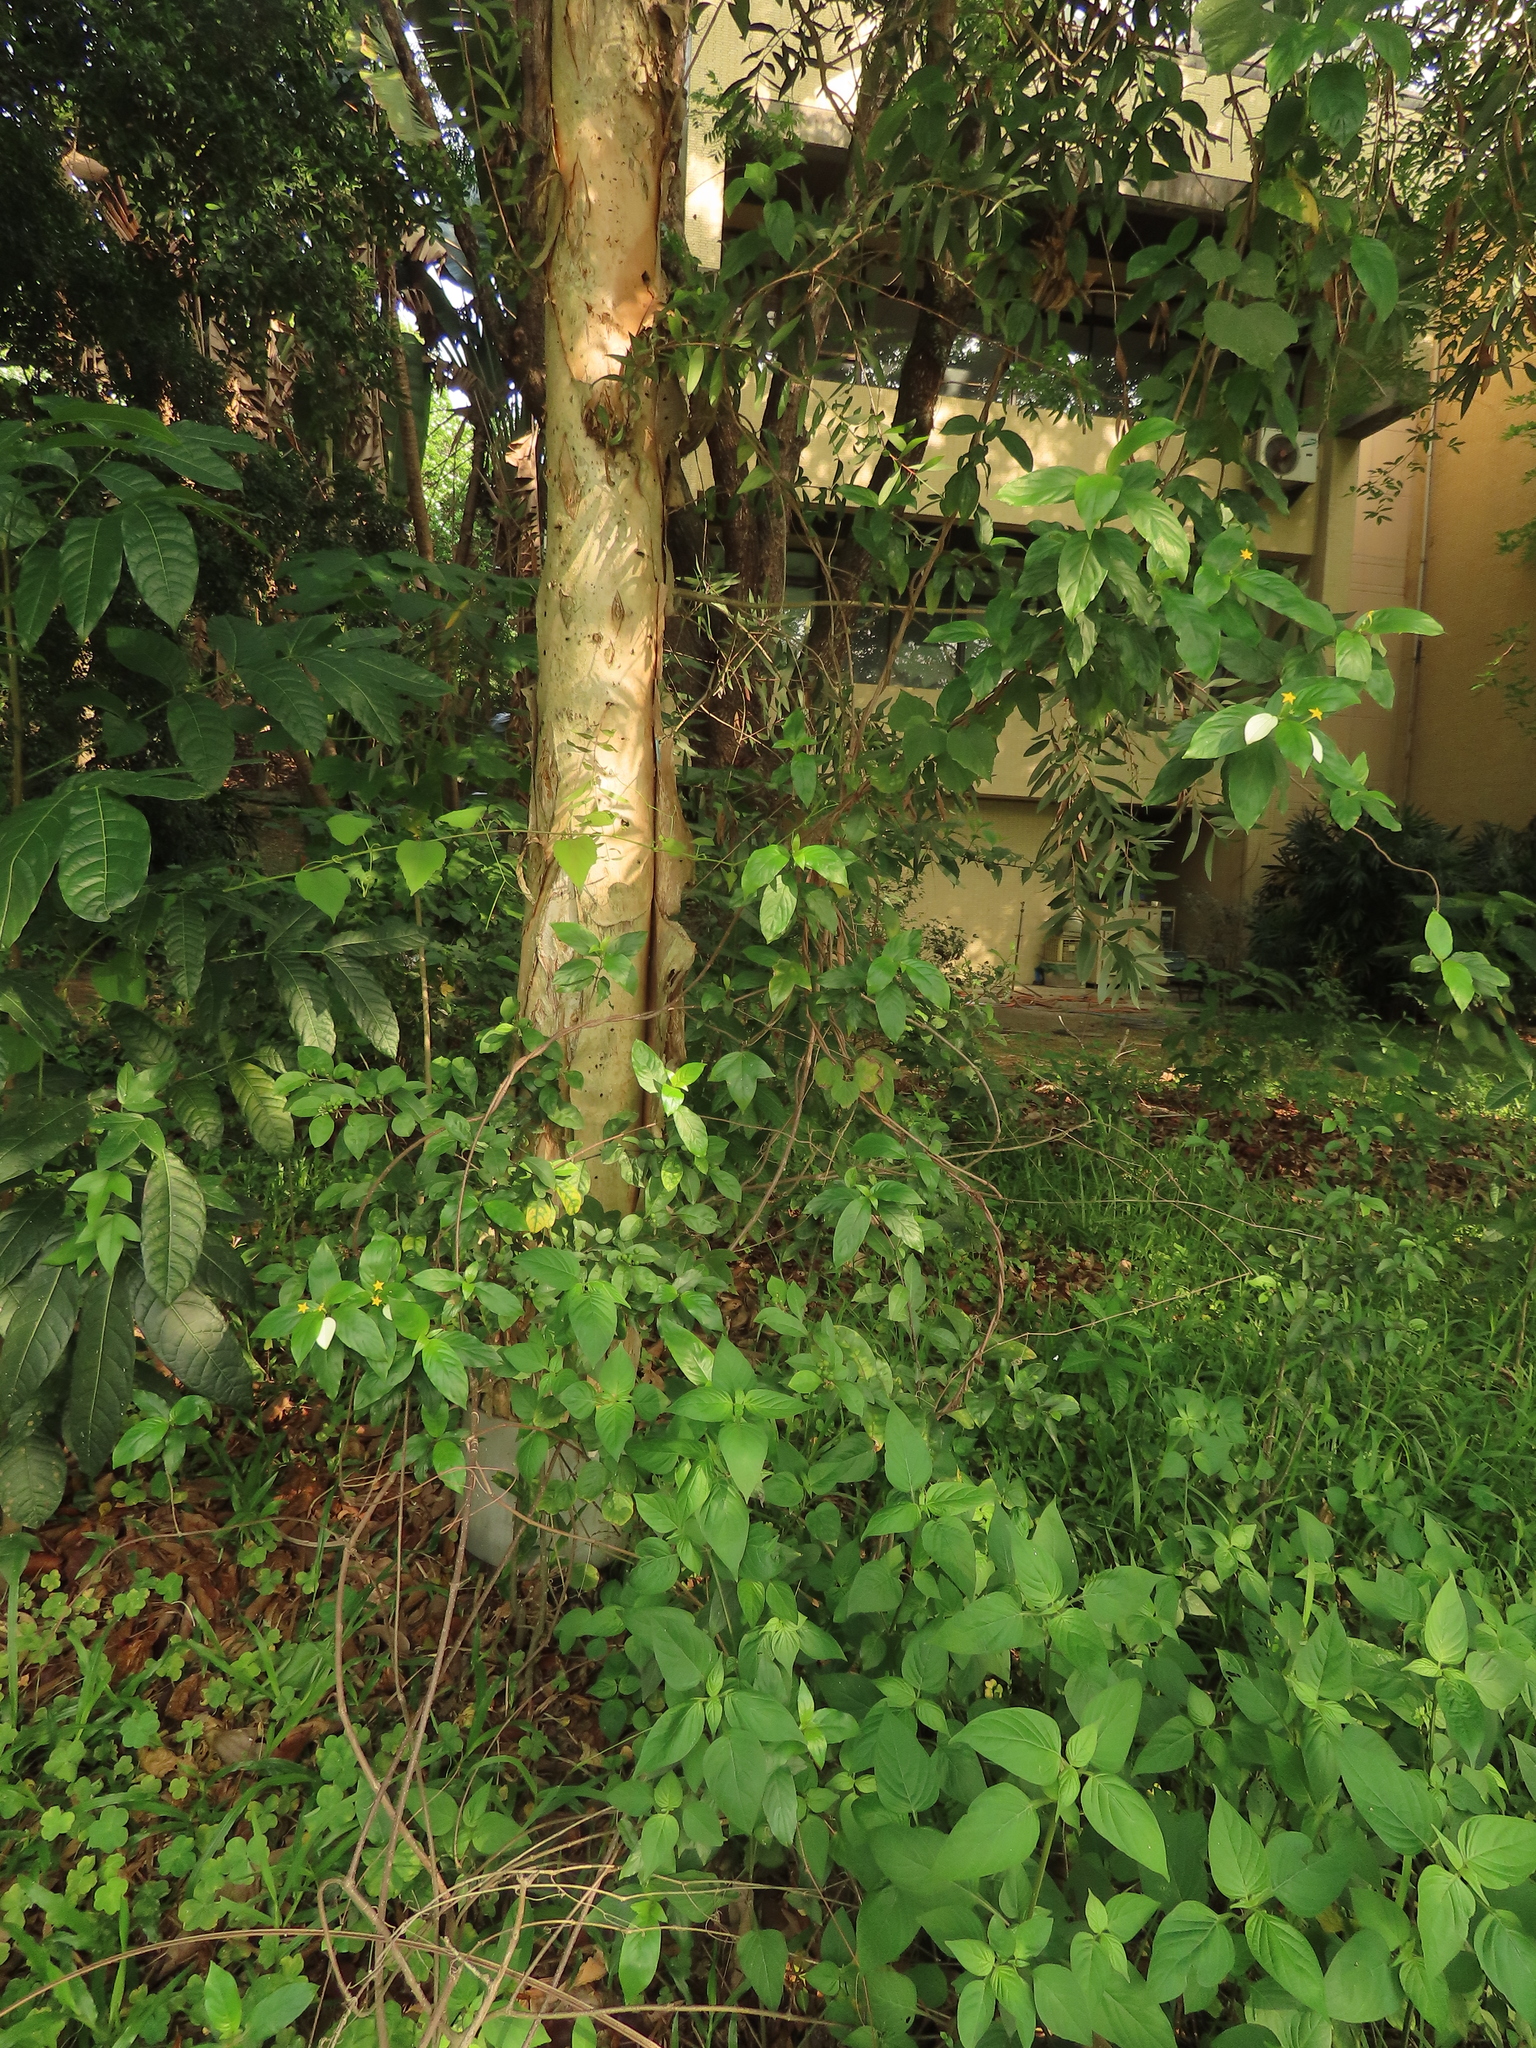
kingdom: Plantae
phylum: Tracheophyta
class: Magnoliopsida
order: Gentianales
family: Rubiaceae
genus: Mussaenda
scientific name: Mussaenda formosana
